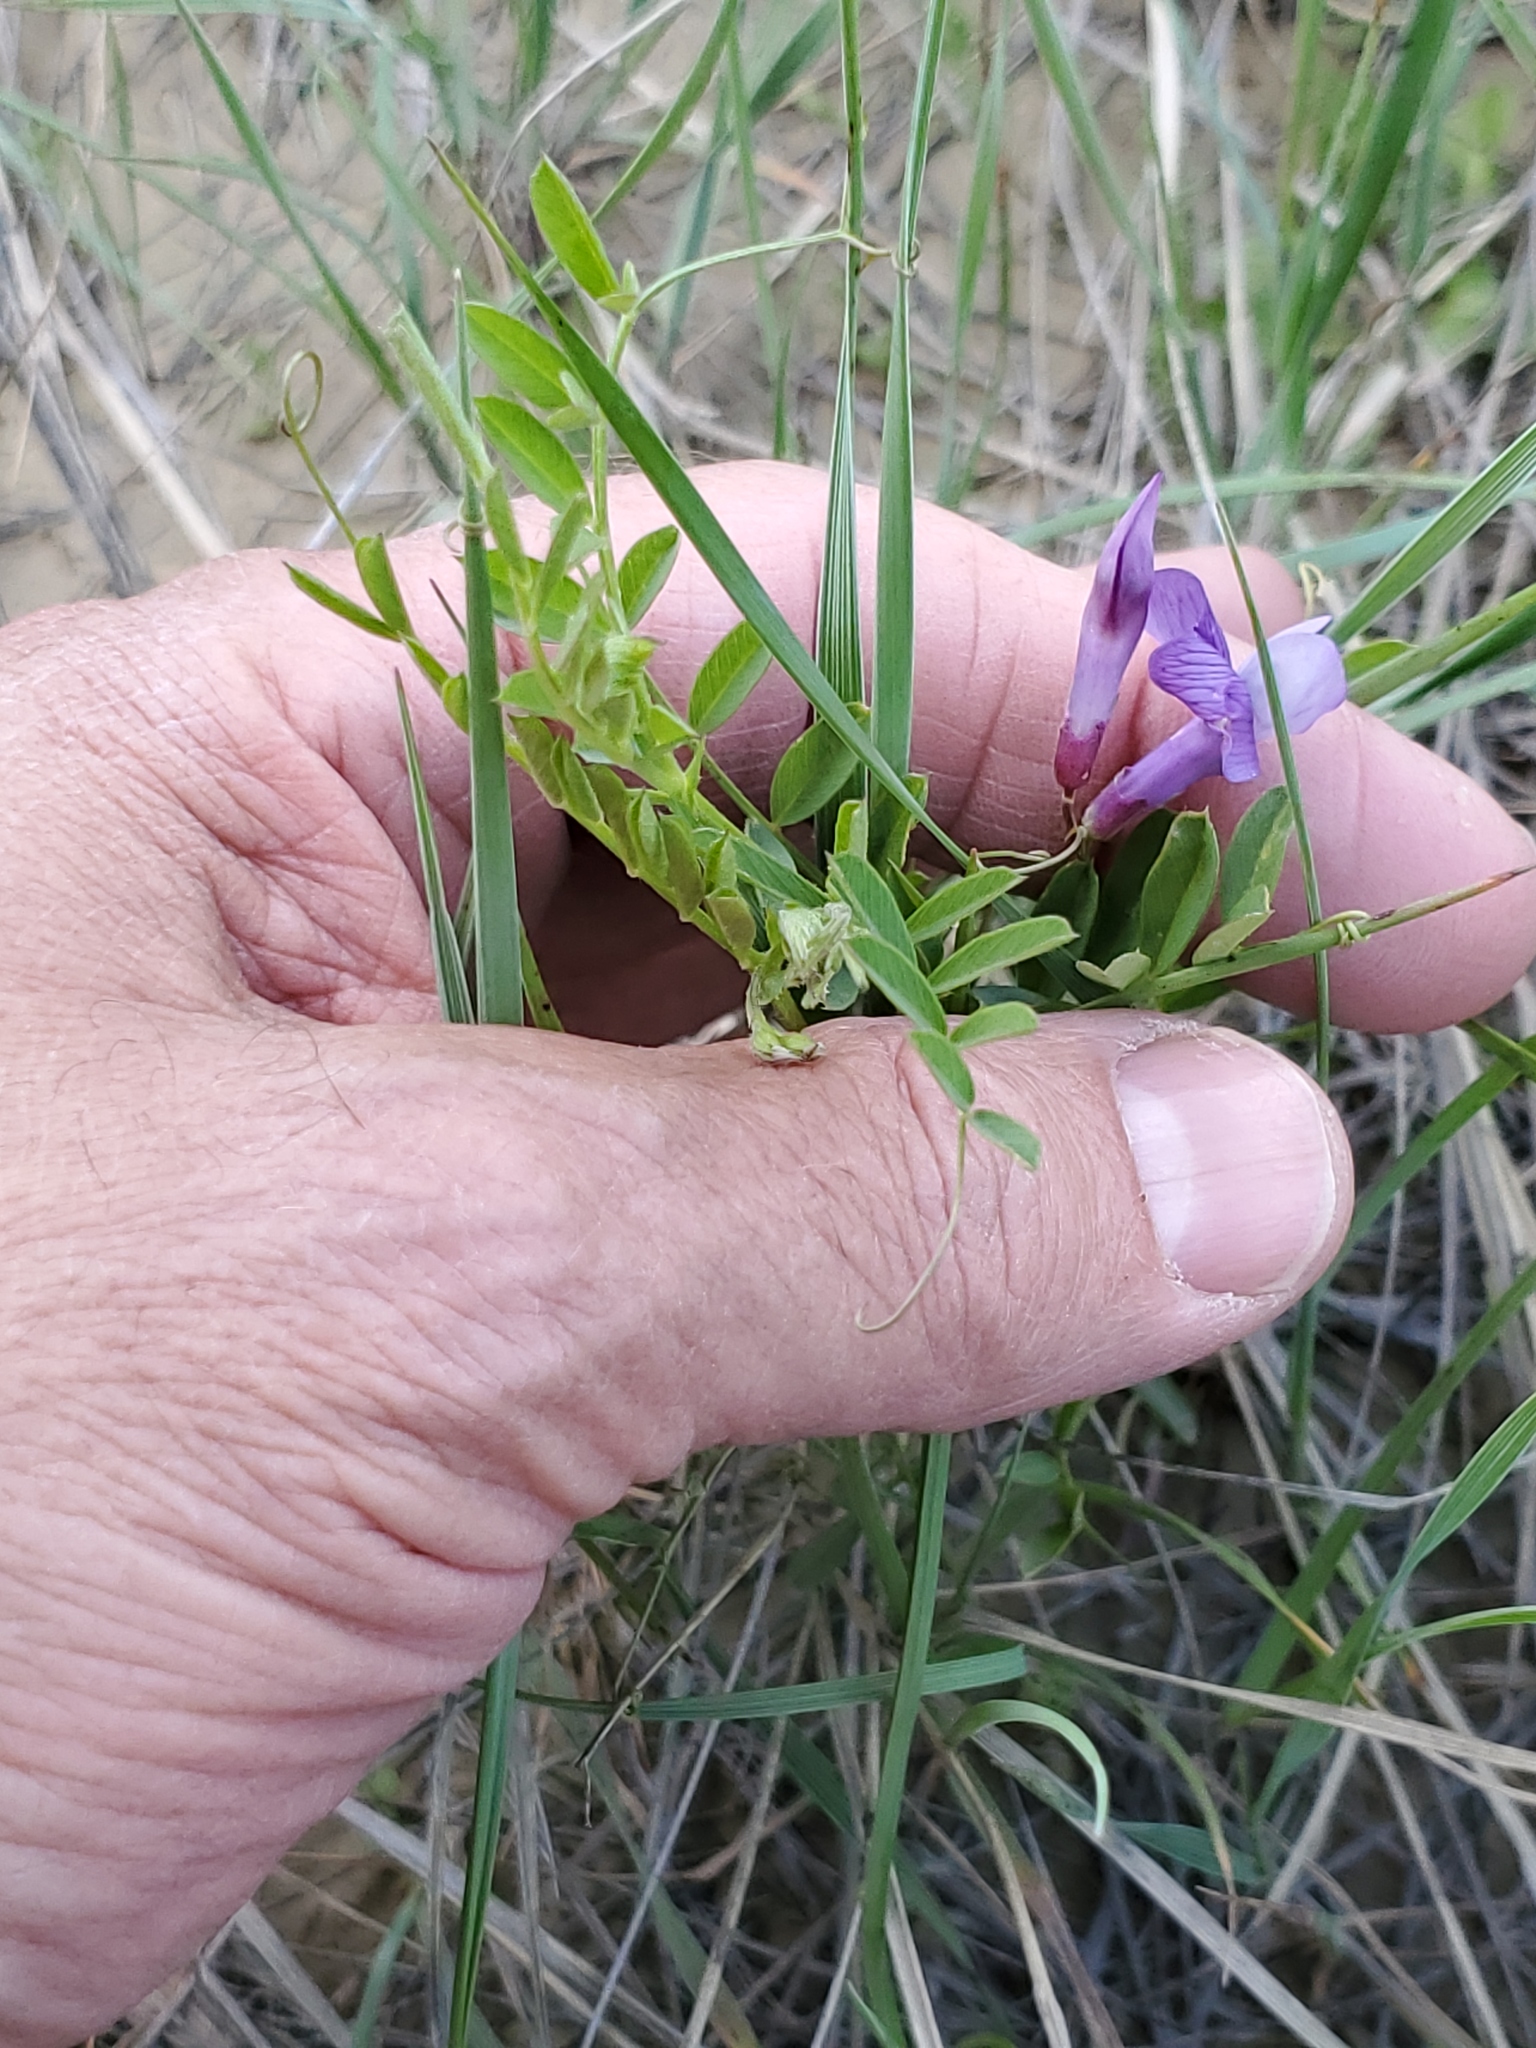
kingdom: Plantae
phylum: Tracheophyta
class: Magnoliopsida
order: Fabales
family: Fabaceae
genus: Vicia
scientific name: Vicia americana
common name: American vetch
